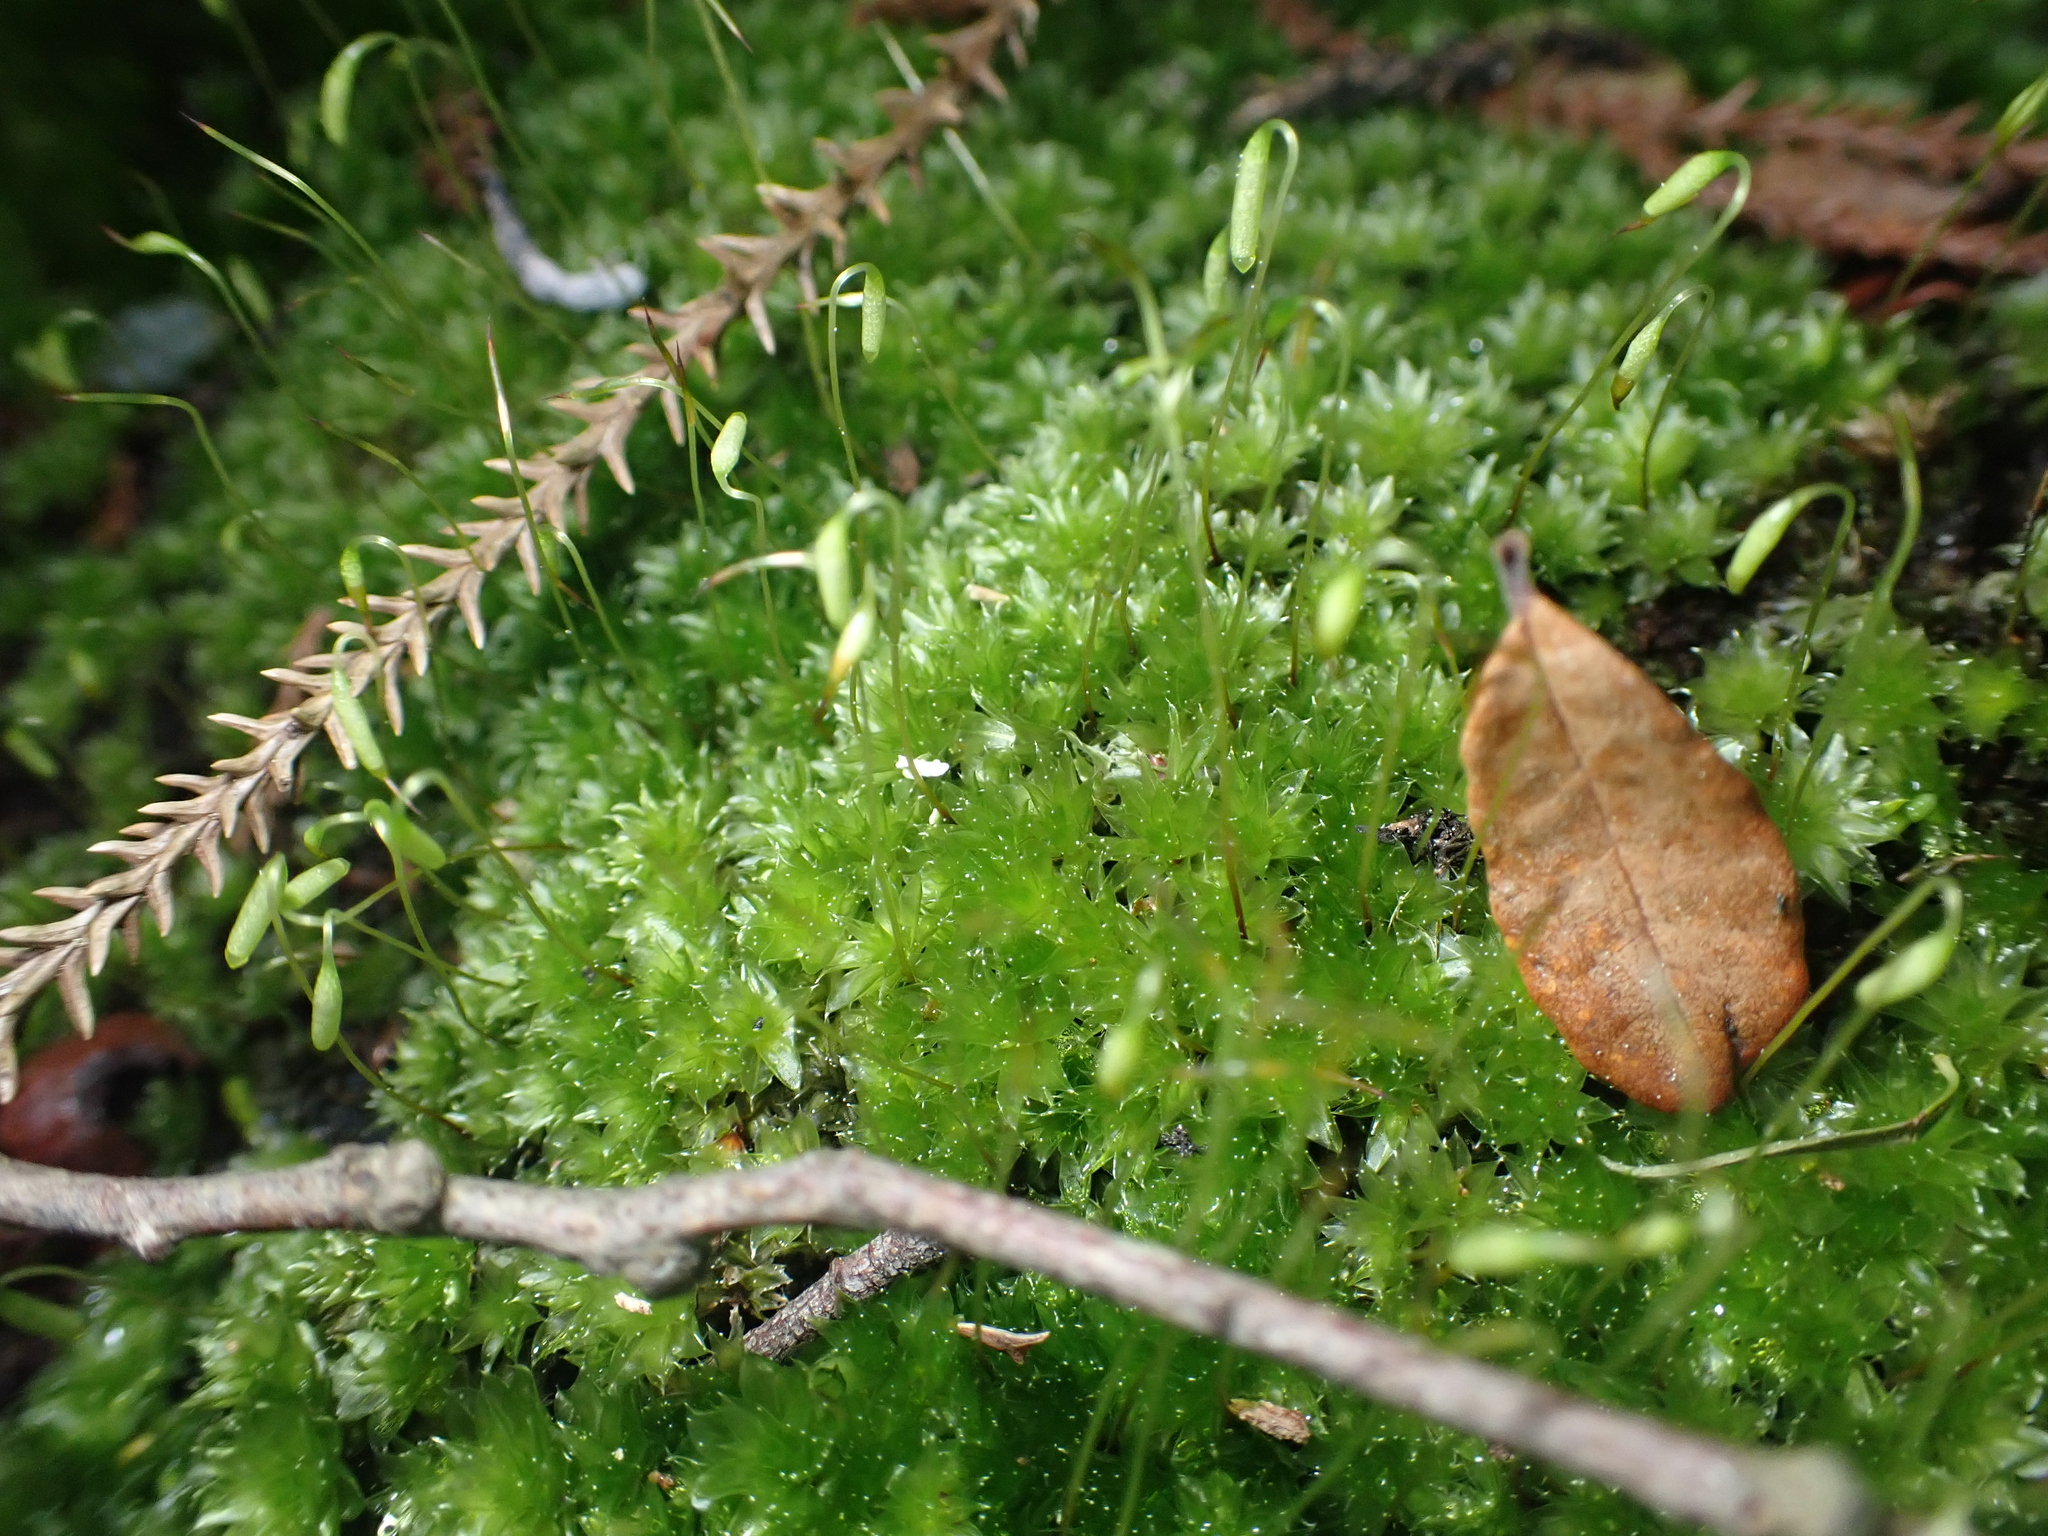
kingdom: Plantae
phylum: Bryophyta
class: Bryopsida
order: Bryales
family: Bryaceae
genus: Rosulabryum
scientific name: Rosulabryum subtomentosum
